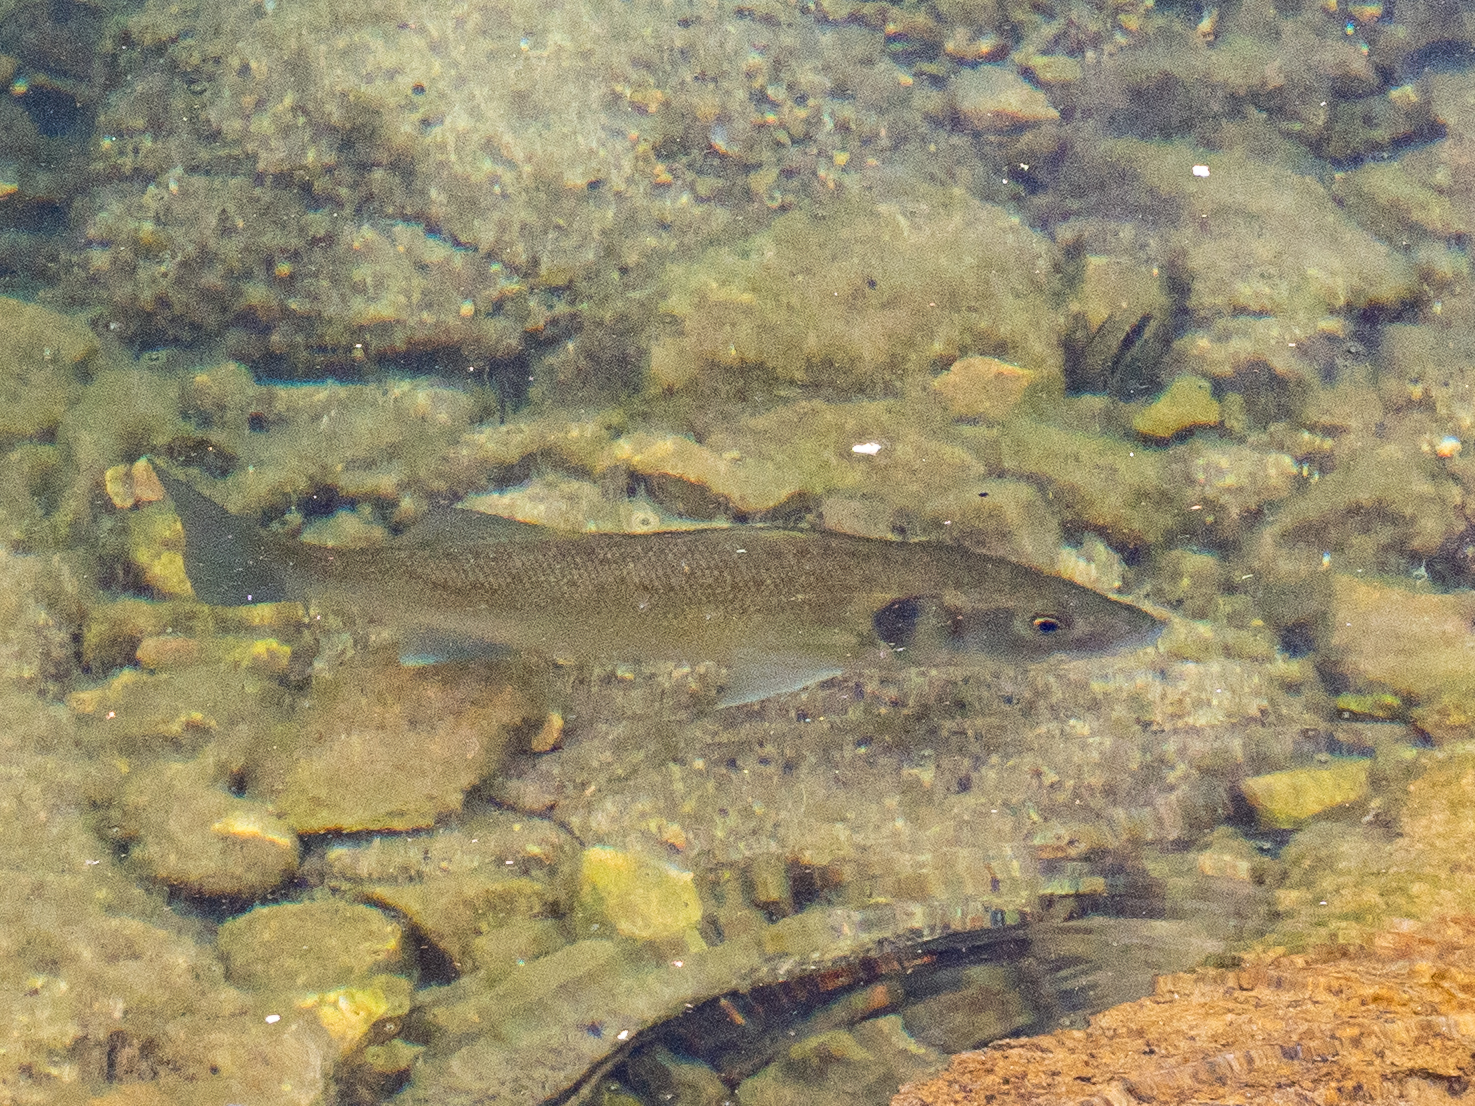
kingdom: Animalia
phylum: Chordata
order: Perciformes
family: Moronidae
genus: Dicentrarchus
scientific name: Dicentrarchus labrax
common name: European seabass
